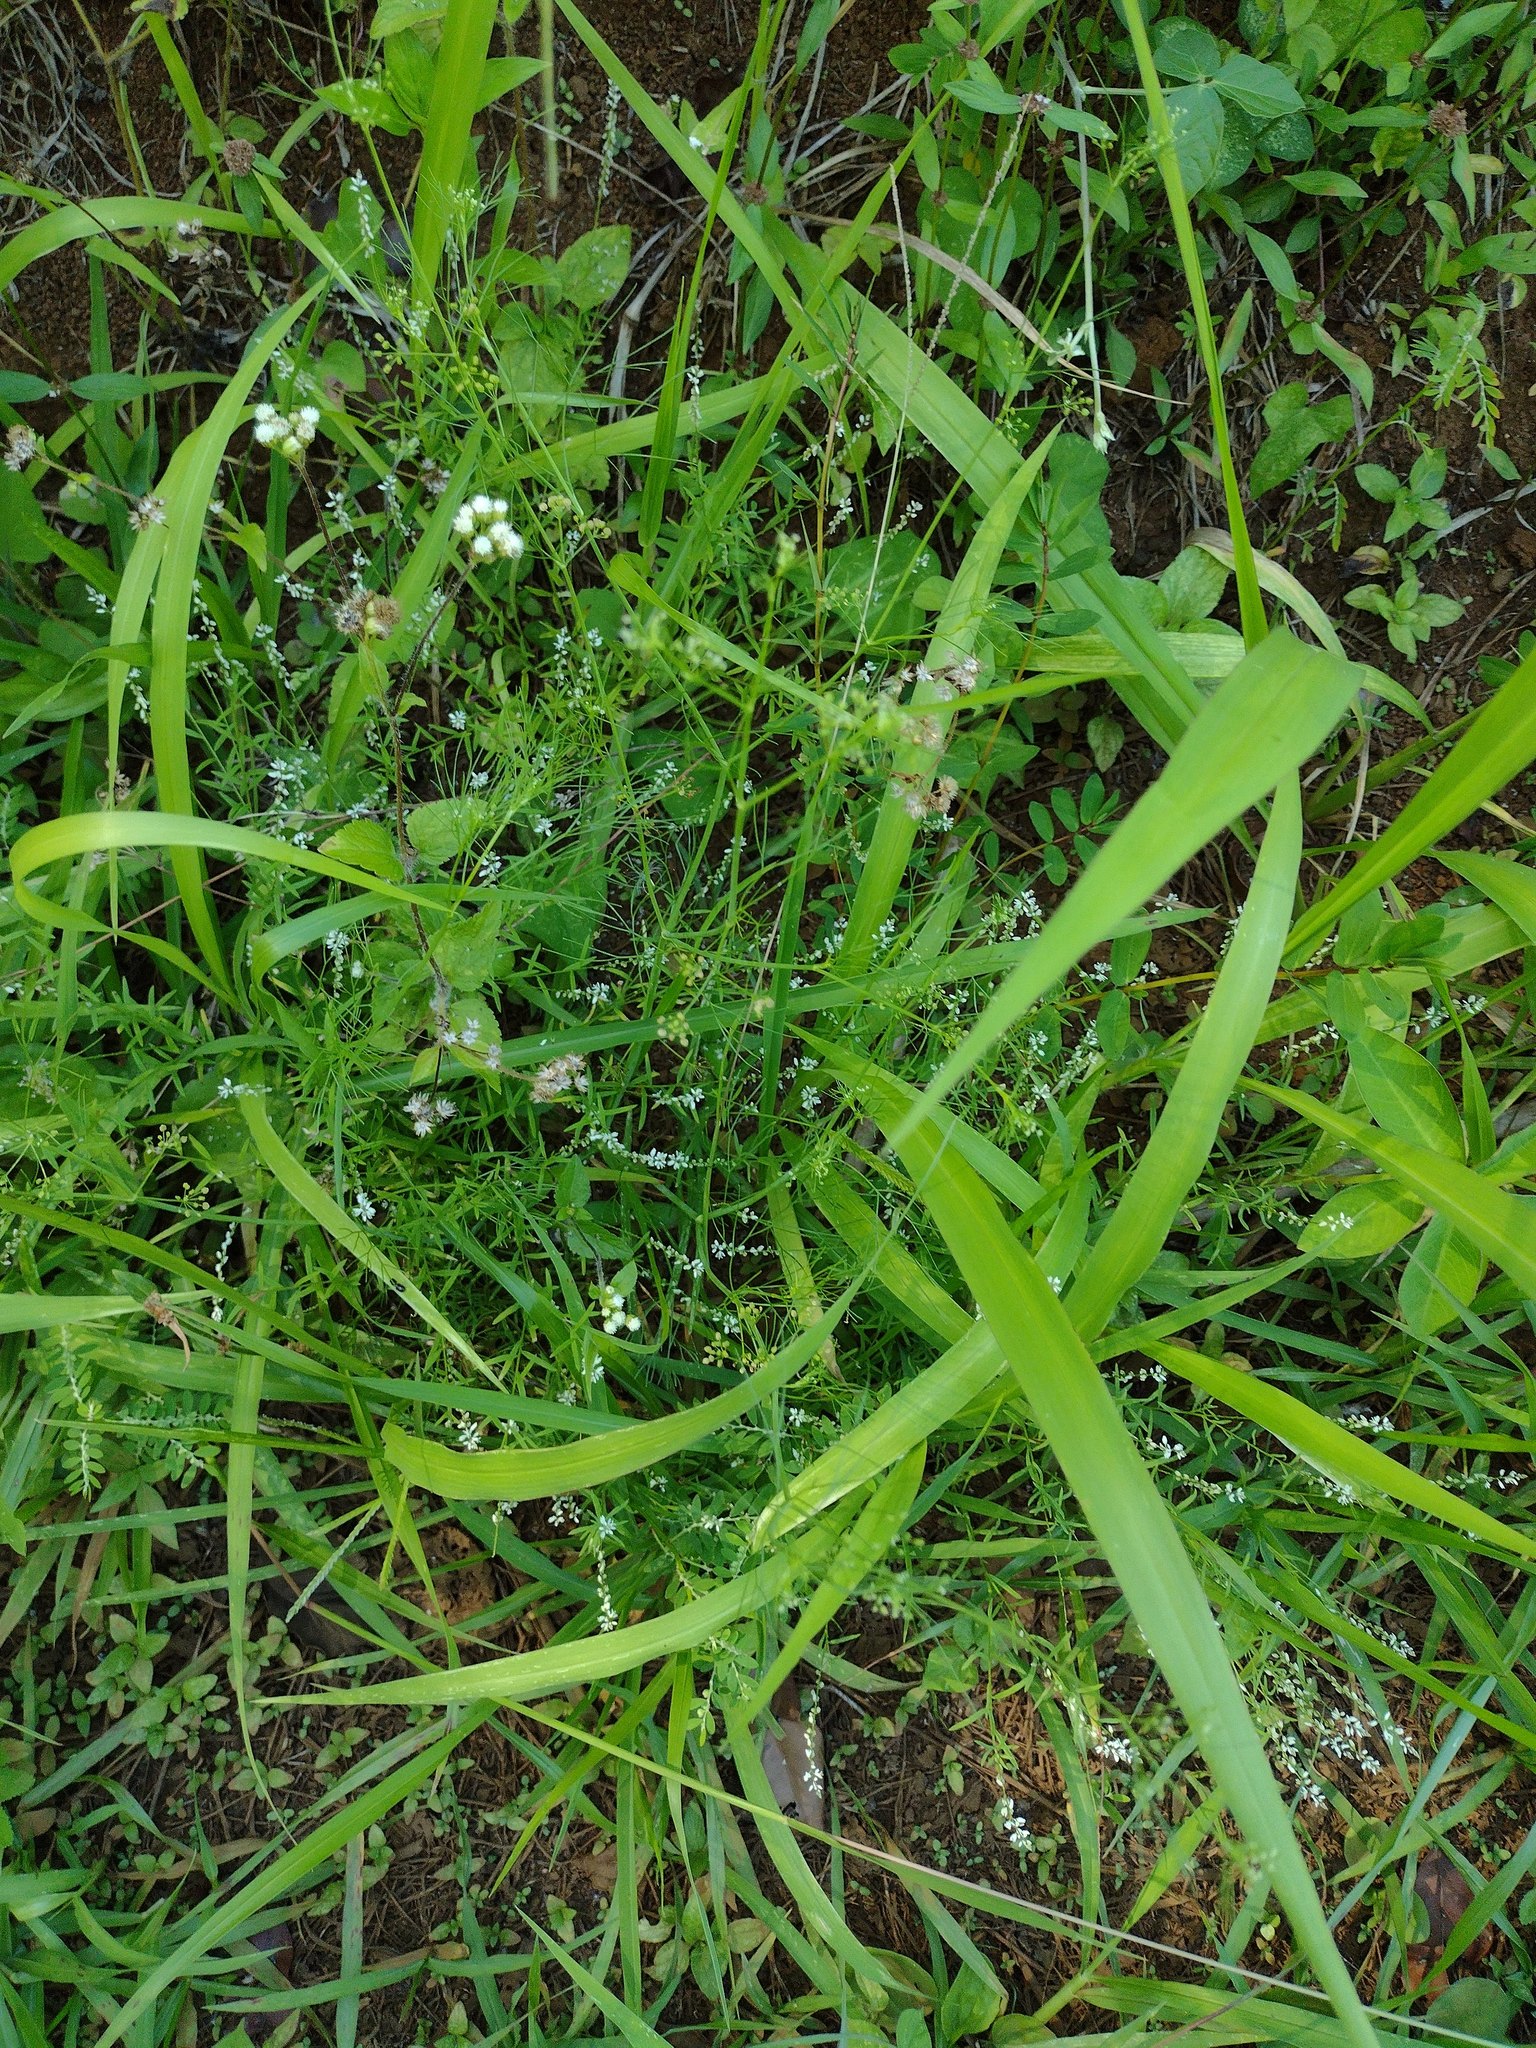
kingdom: Plantae
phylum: Tracheophyta
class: Magnoliopsida
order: Fabales
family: Polygalaceae
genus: Polygala
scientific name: Polygala paniculata
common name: Orosne
